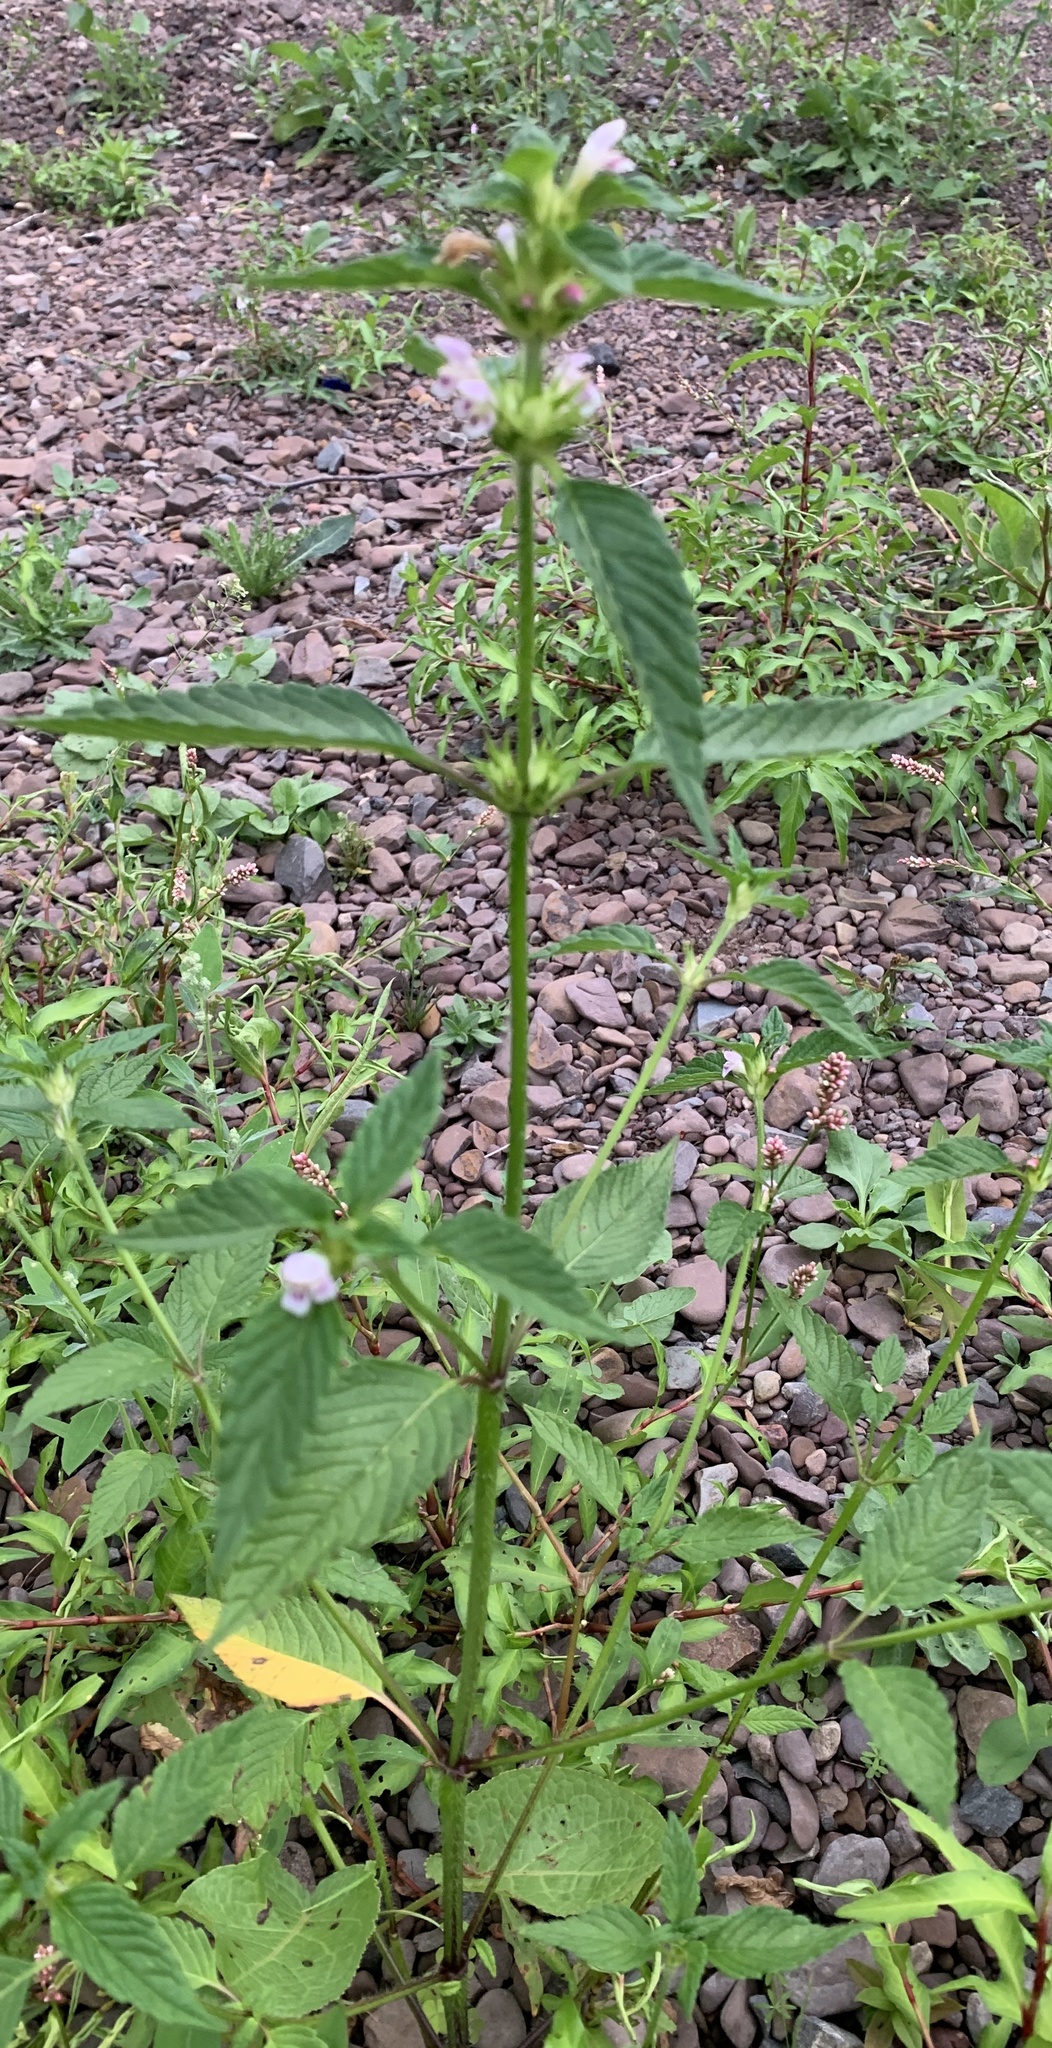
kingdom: Plantae
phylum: Tracheophyta
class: Magnoliopsida
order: Lamiales
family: Lamiaceae
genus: Galeopsis
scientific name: Galeopsis tetrahit
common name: Common hemp-nettle
